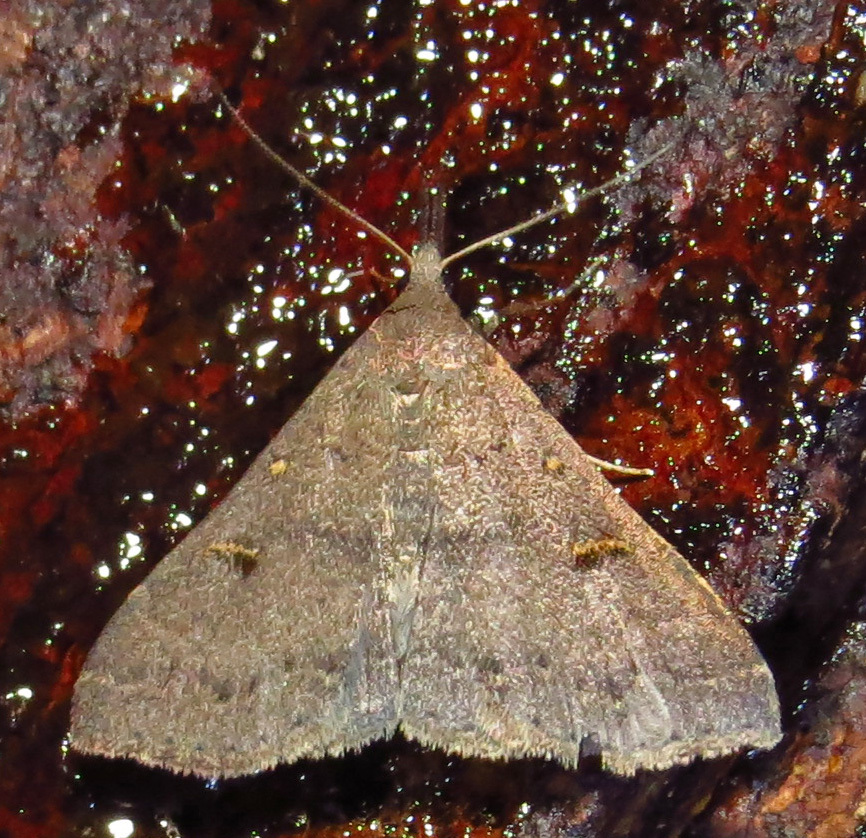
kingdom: Animalia
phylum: Arthropoda
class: Insecta
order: Lepidoptera
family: Erebidae
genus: Renia
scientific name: Renia adspergillus
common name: Speckled renia moth
